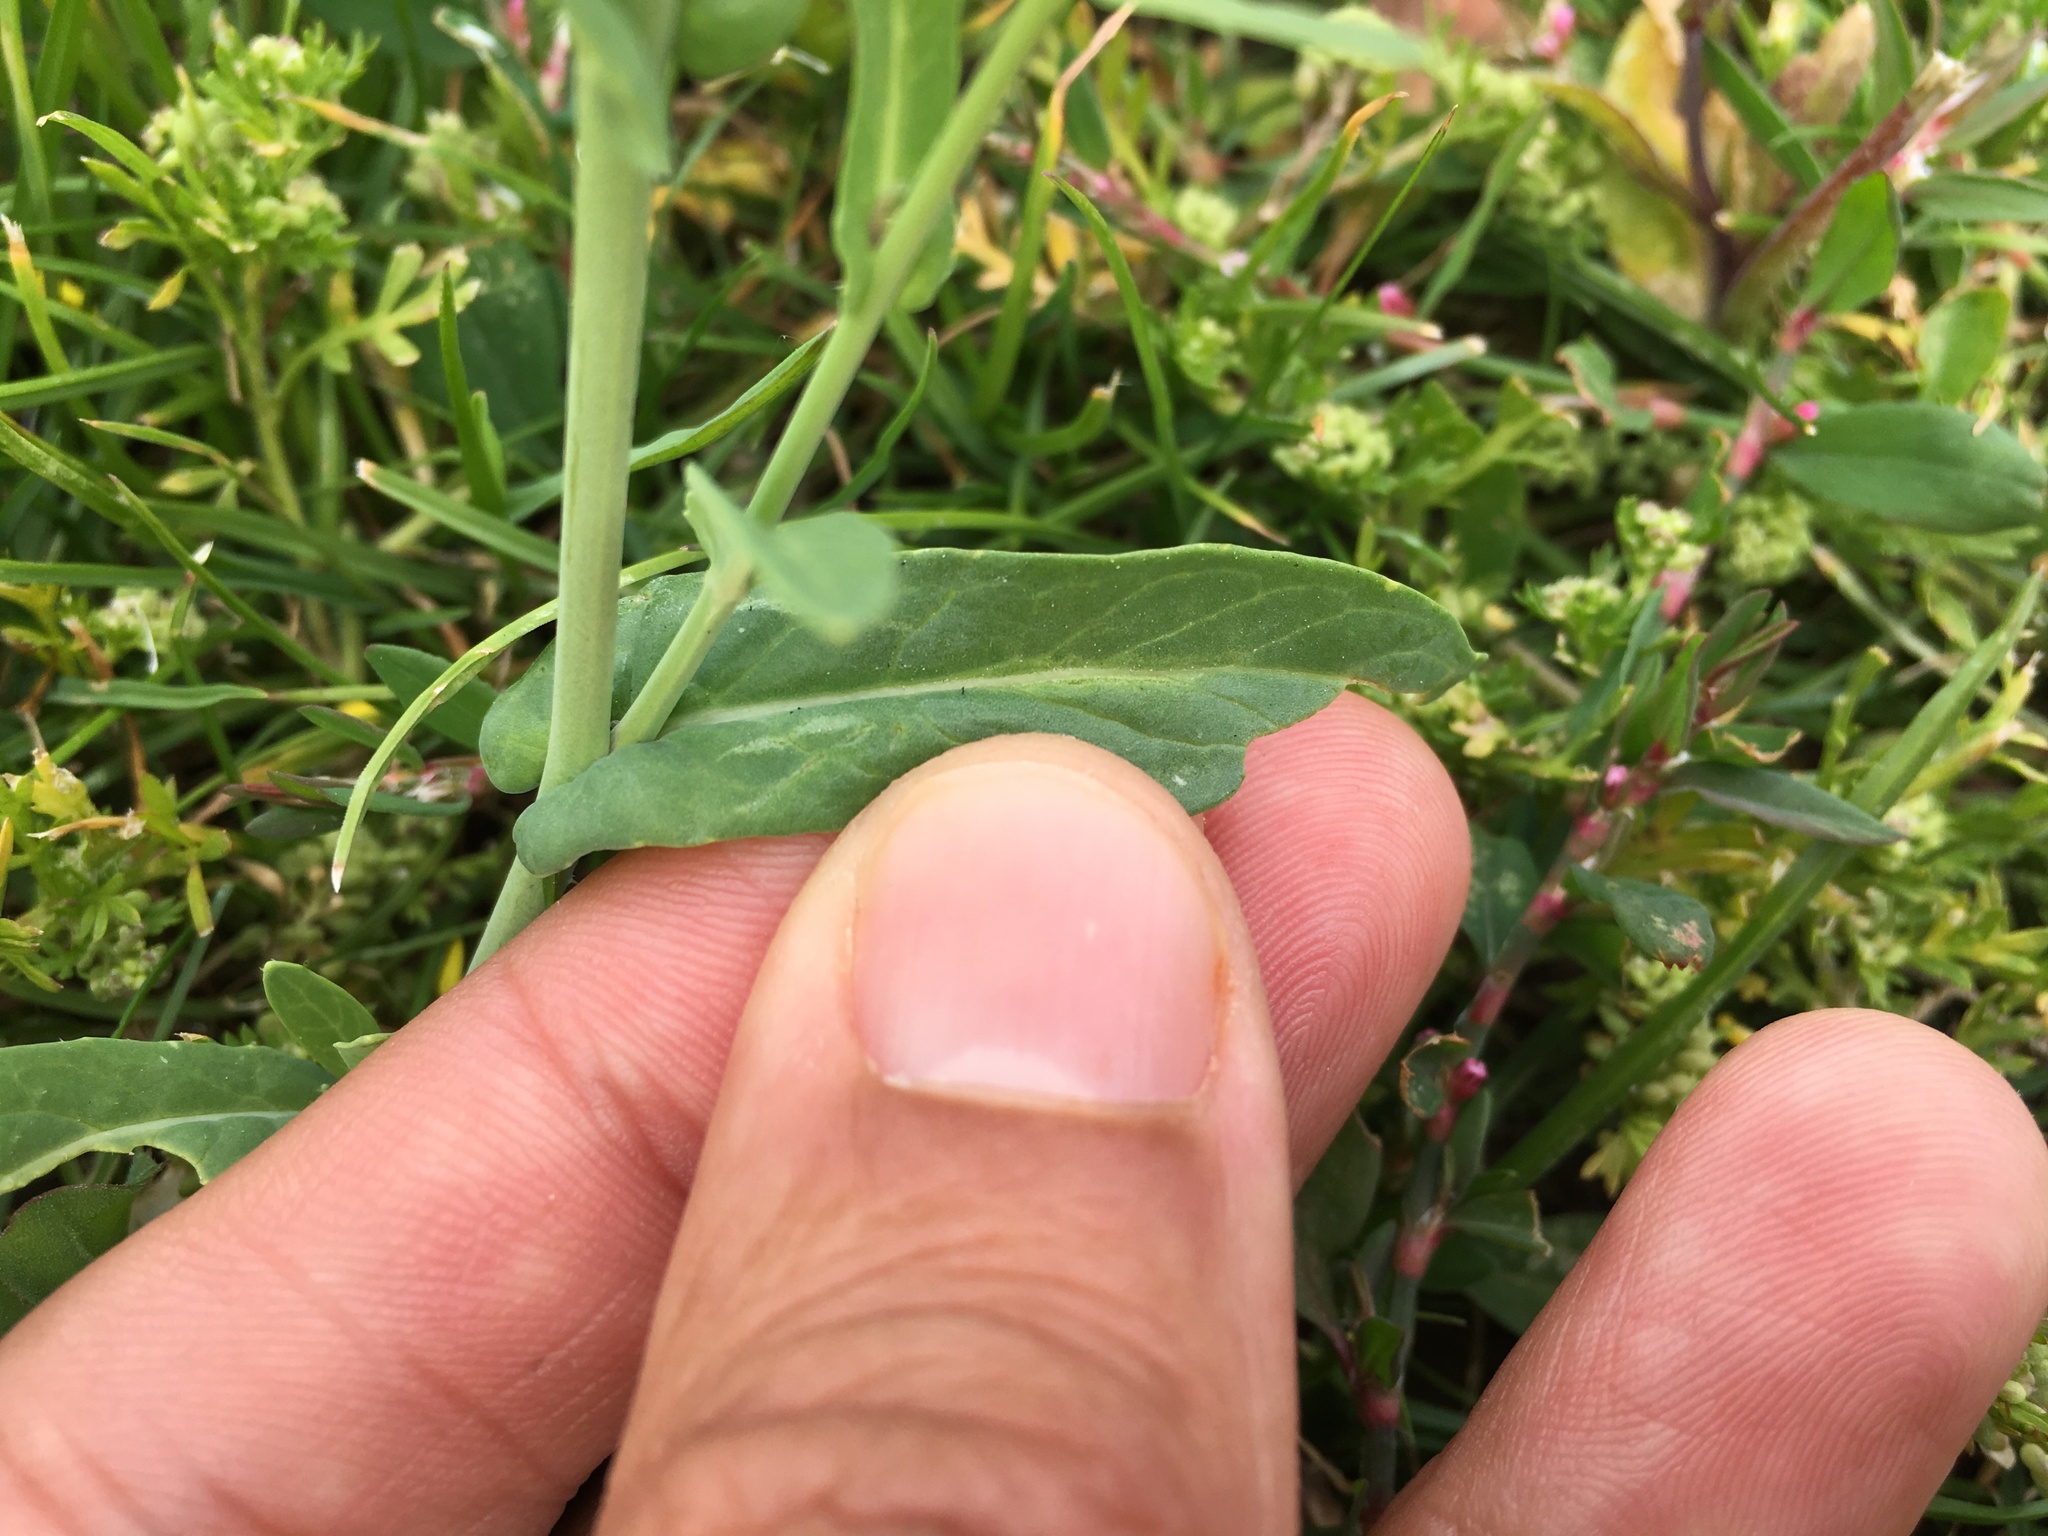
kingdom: Plantae
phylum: Tracheophyta
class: Magnoliopsida
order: Brassicales
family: Brassicaceae
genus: Brassica
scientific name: Brassica napus
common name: Rape
